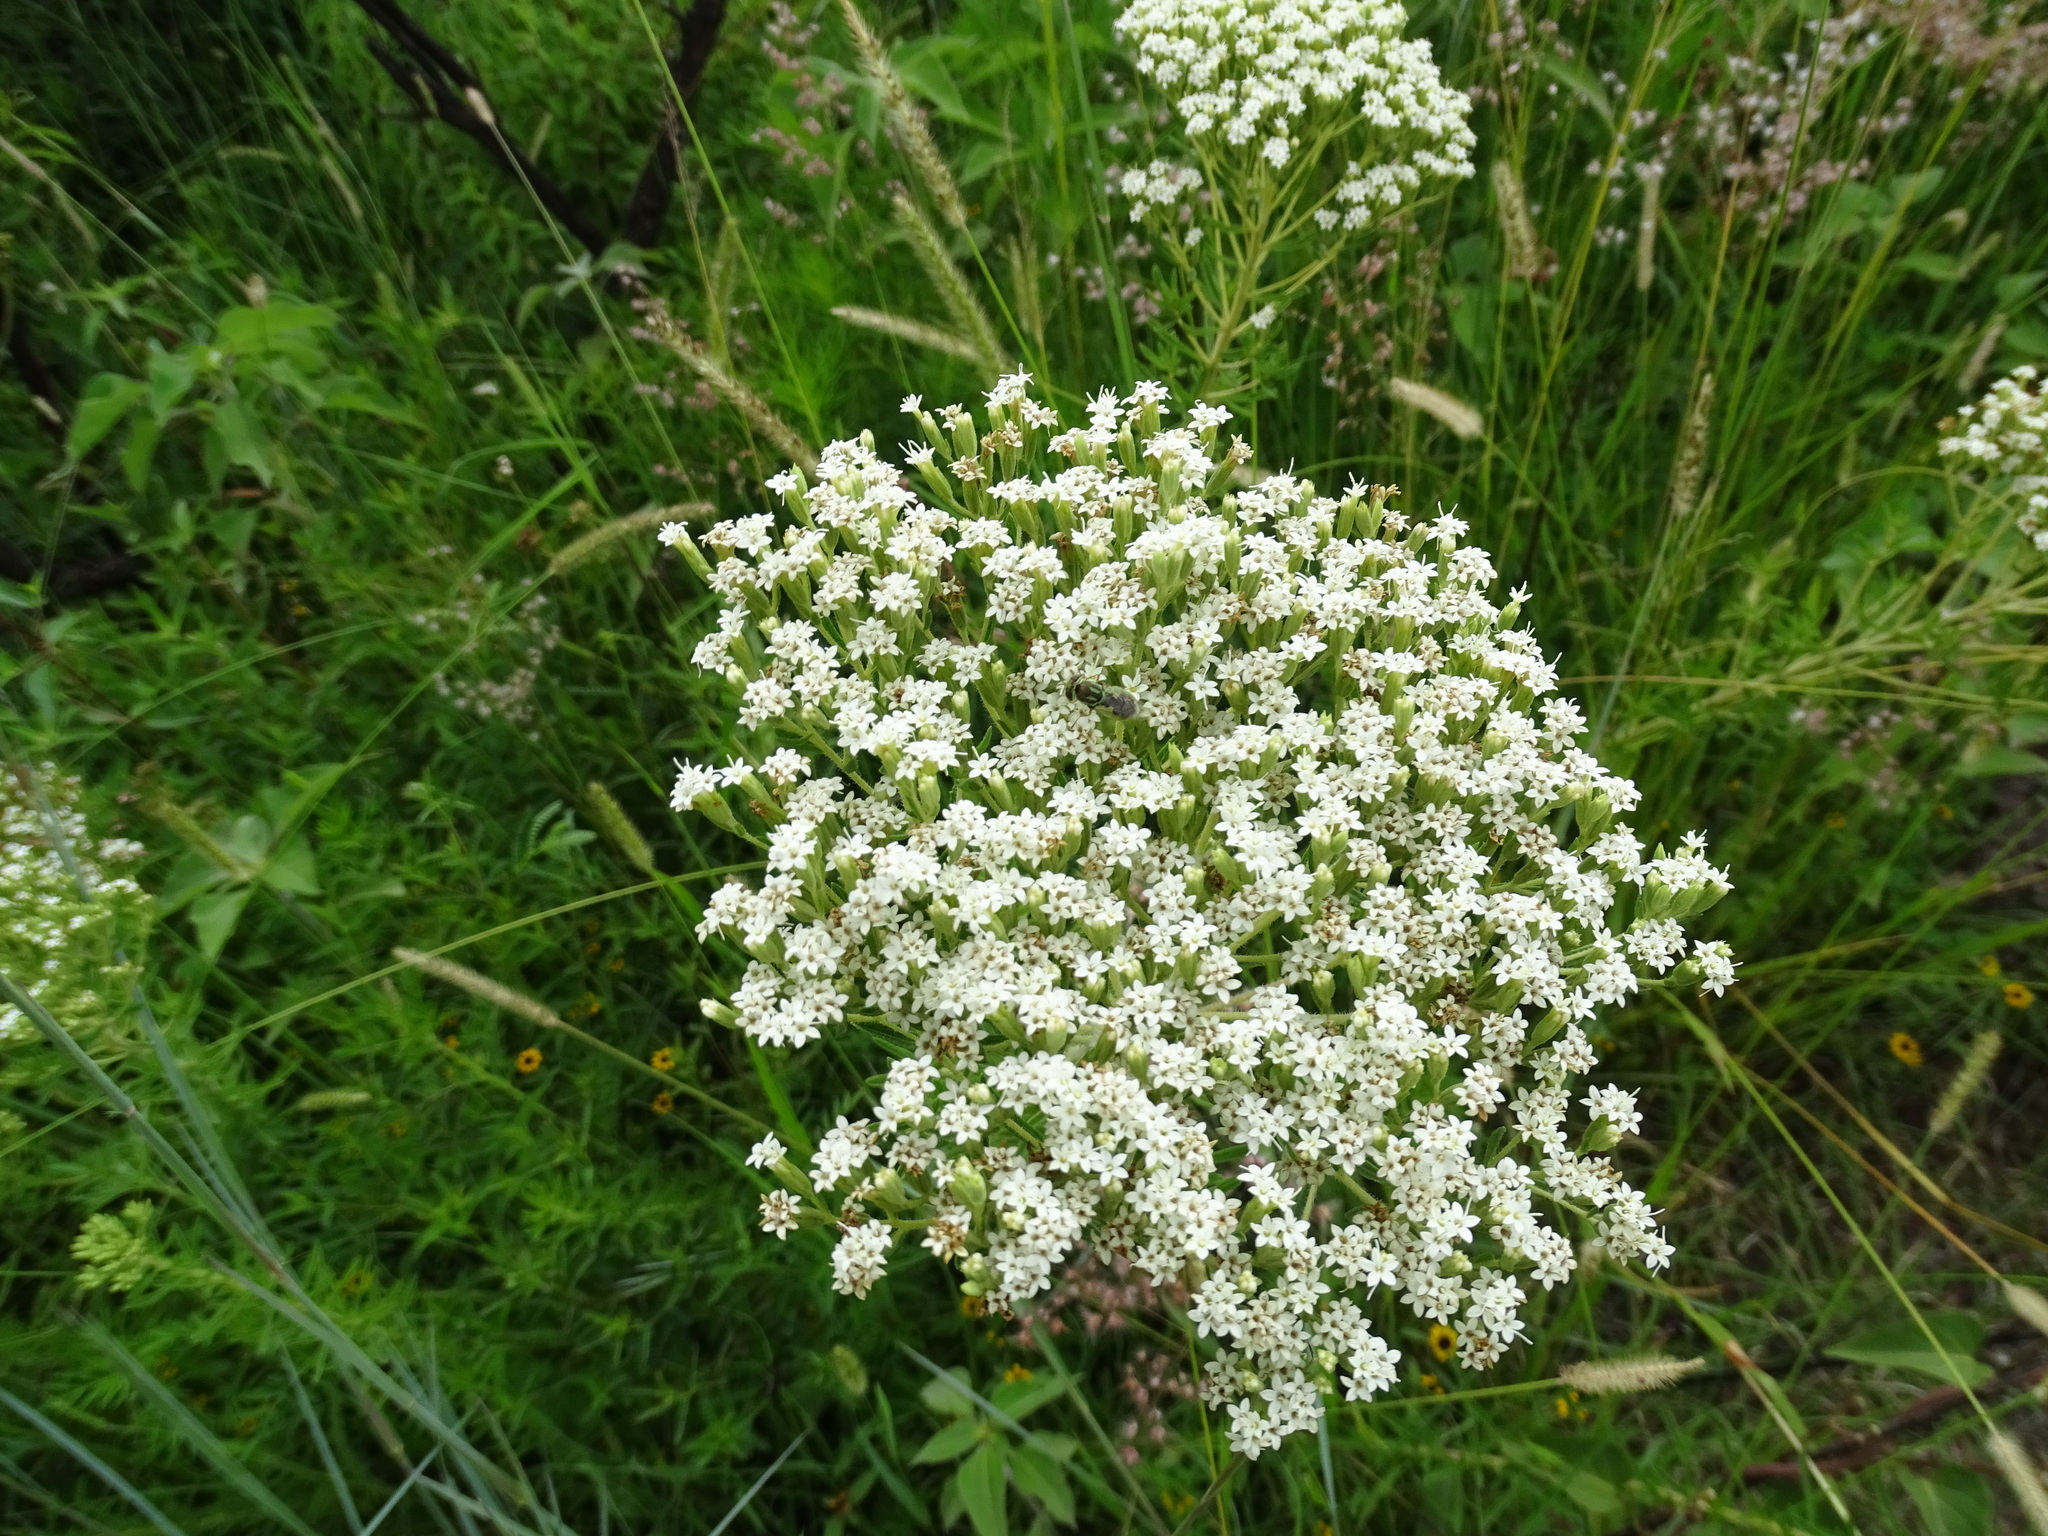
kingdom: Plantae
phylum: Tracheophyta
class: Magnoliopsida
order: Asterales
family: Asteraceae
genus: Stevia
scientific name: Stevia serrata
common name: Sawtooth candyleaf
